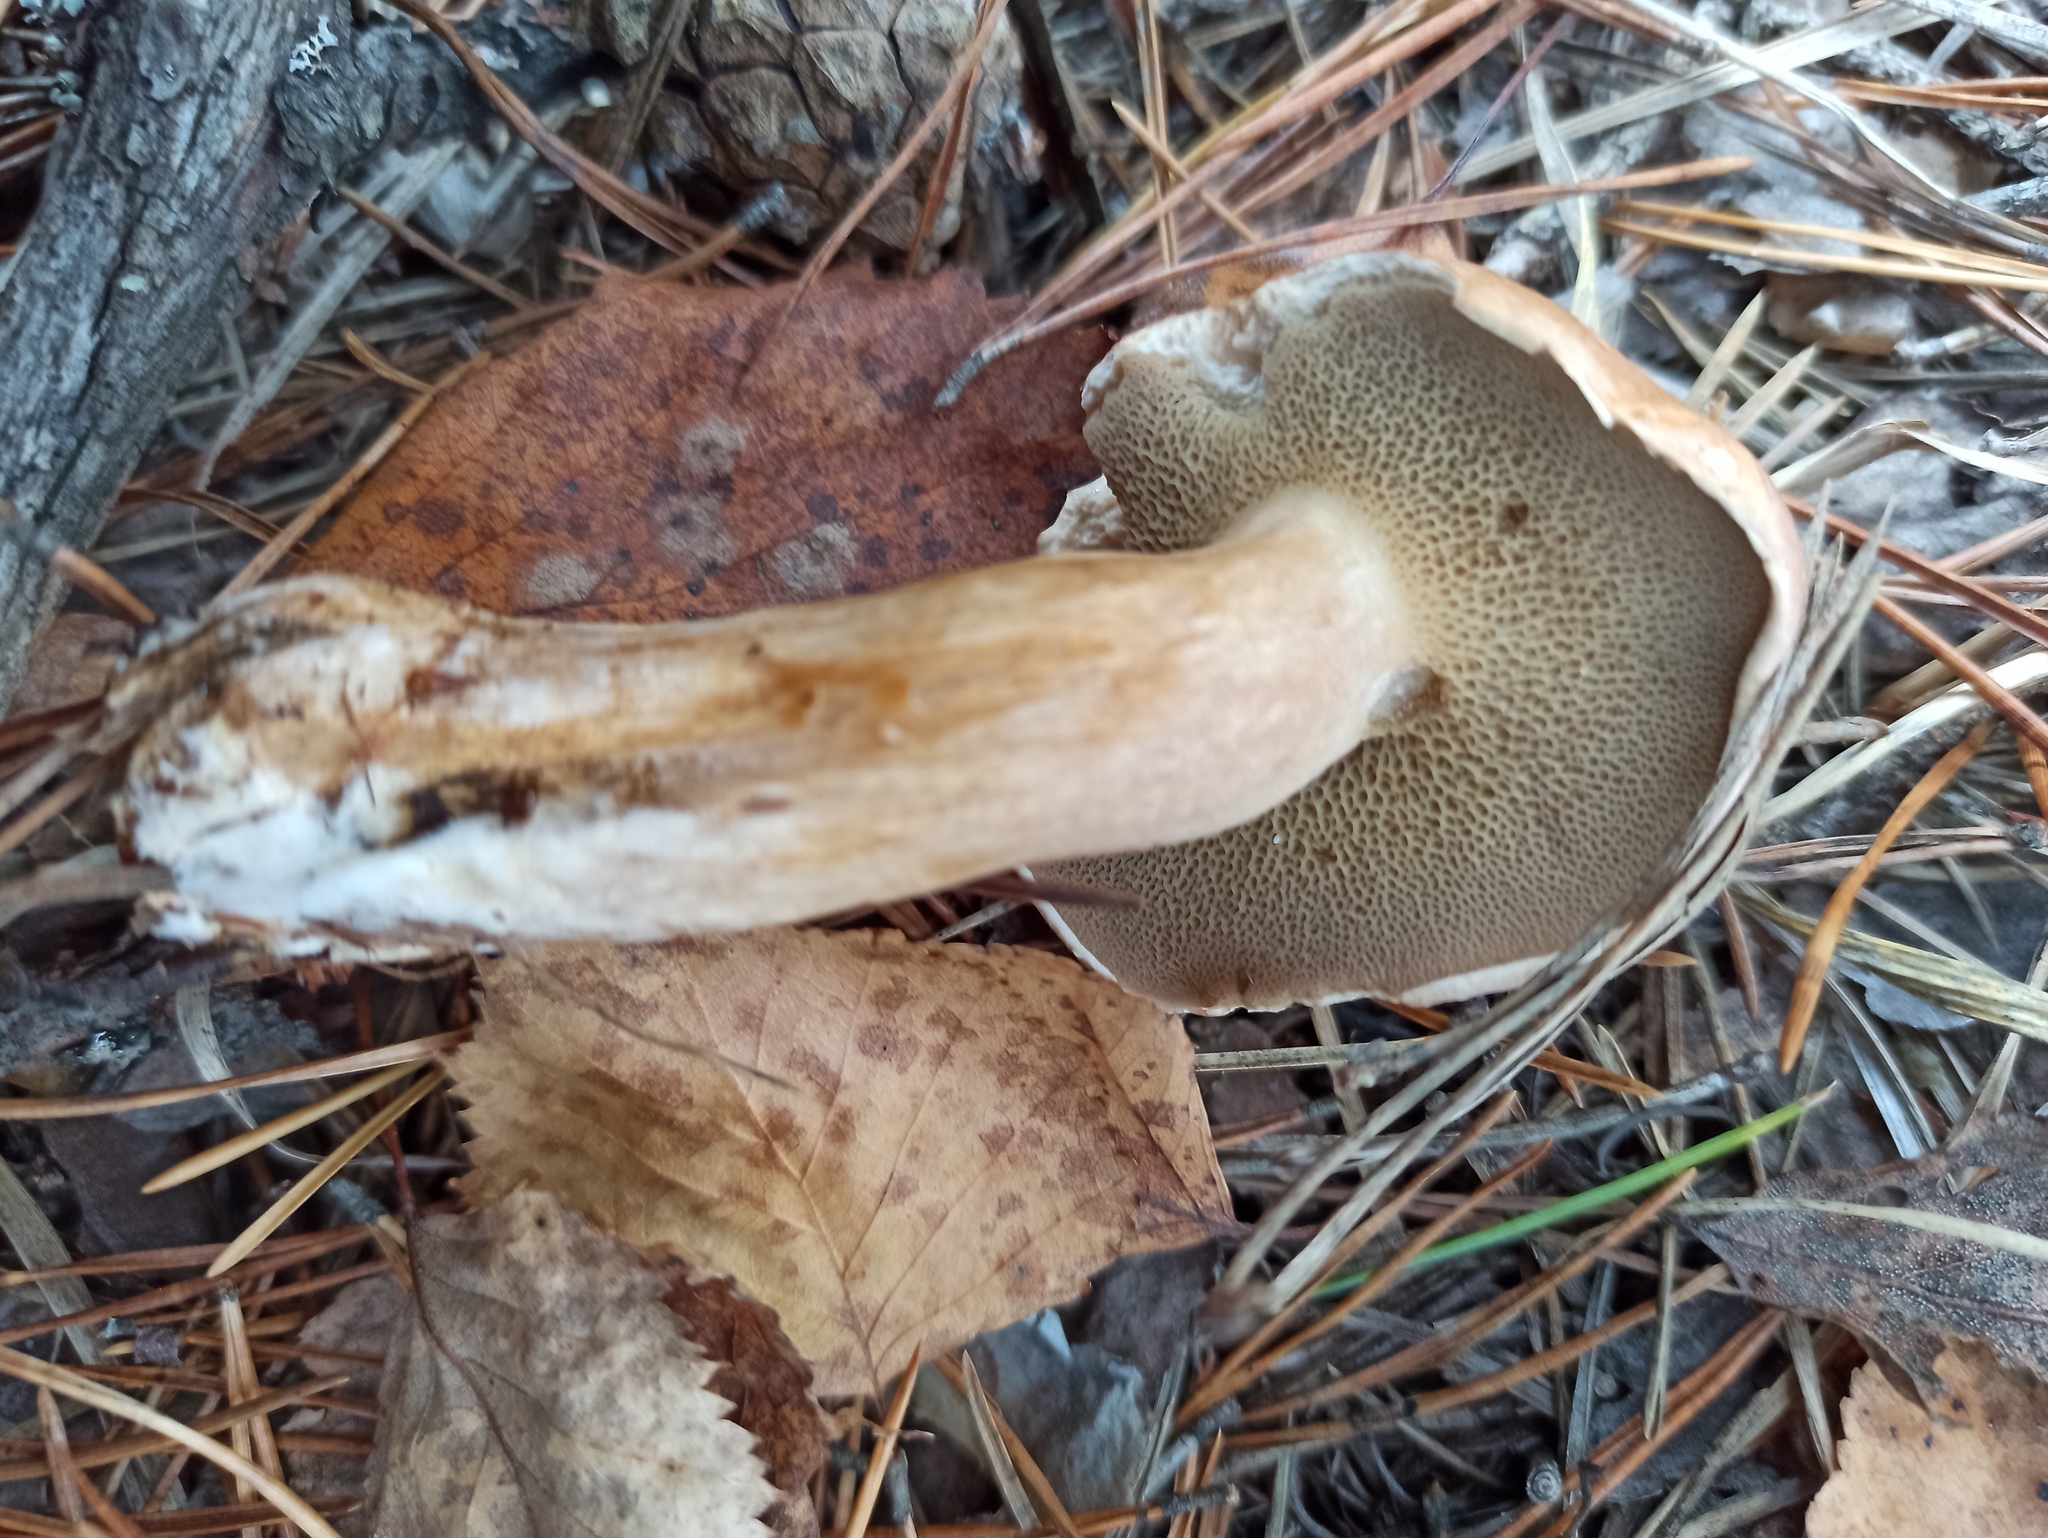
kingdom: Fungi
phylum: Basidiomycota
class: Agaricomycetes
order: Boletales
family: Suillaceae
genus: Suillus
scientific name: Suillus bovinus
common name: Bovine bolete
